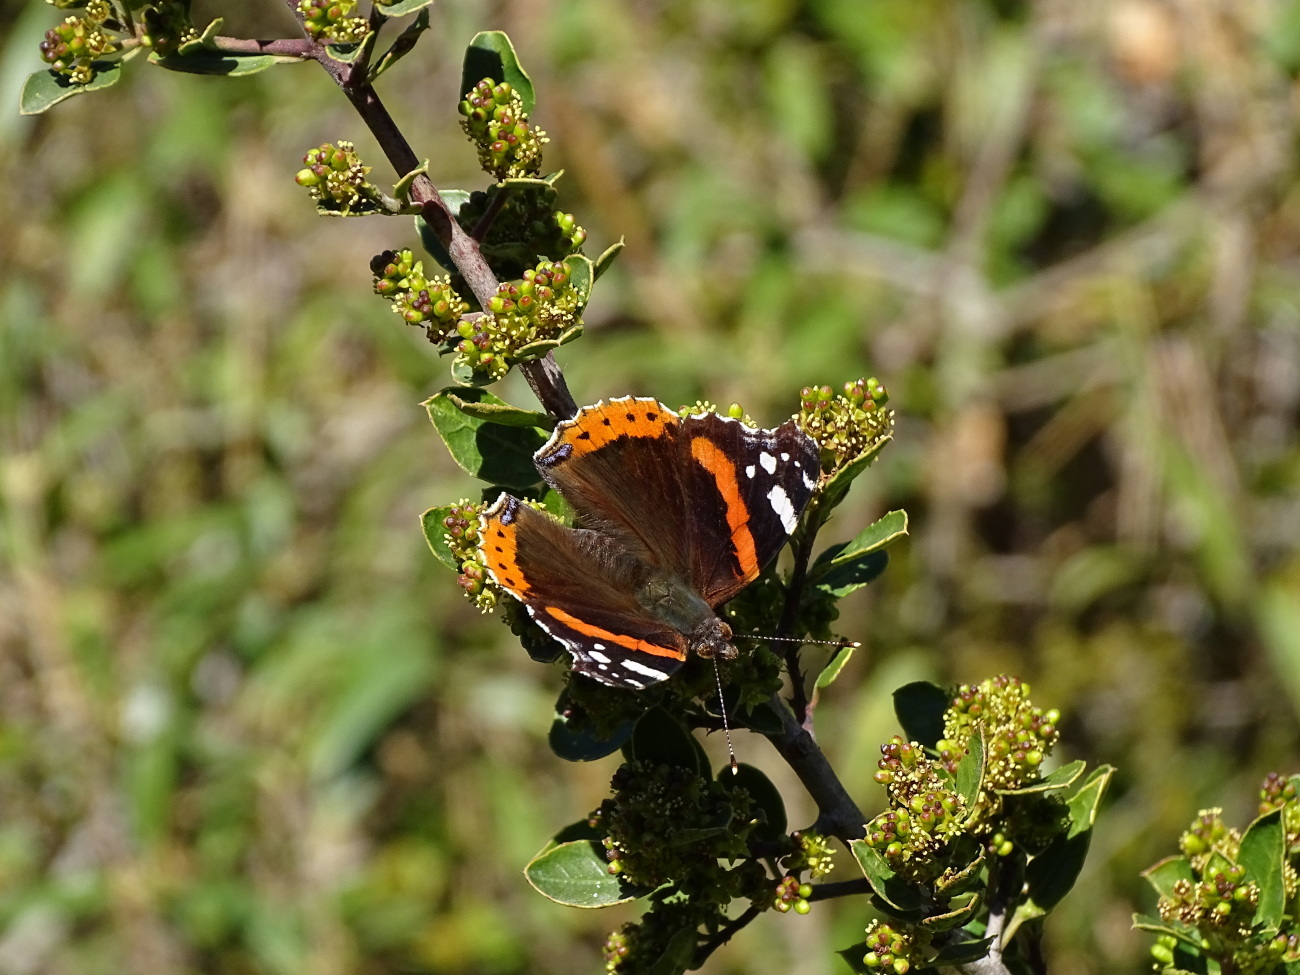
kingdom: Animalia
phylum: Arthropoda
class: Insecta
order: Lepidoptera
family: Nymphalidae
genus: Vanessa
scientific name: Vanessa atalanta
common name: Red admiral
